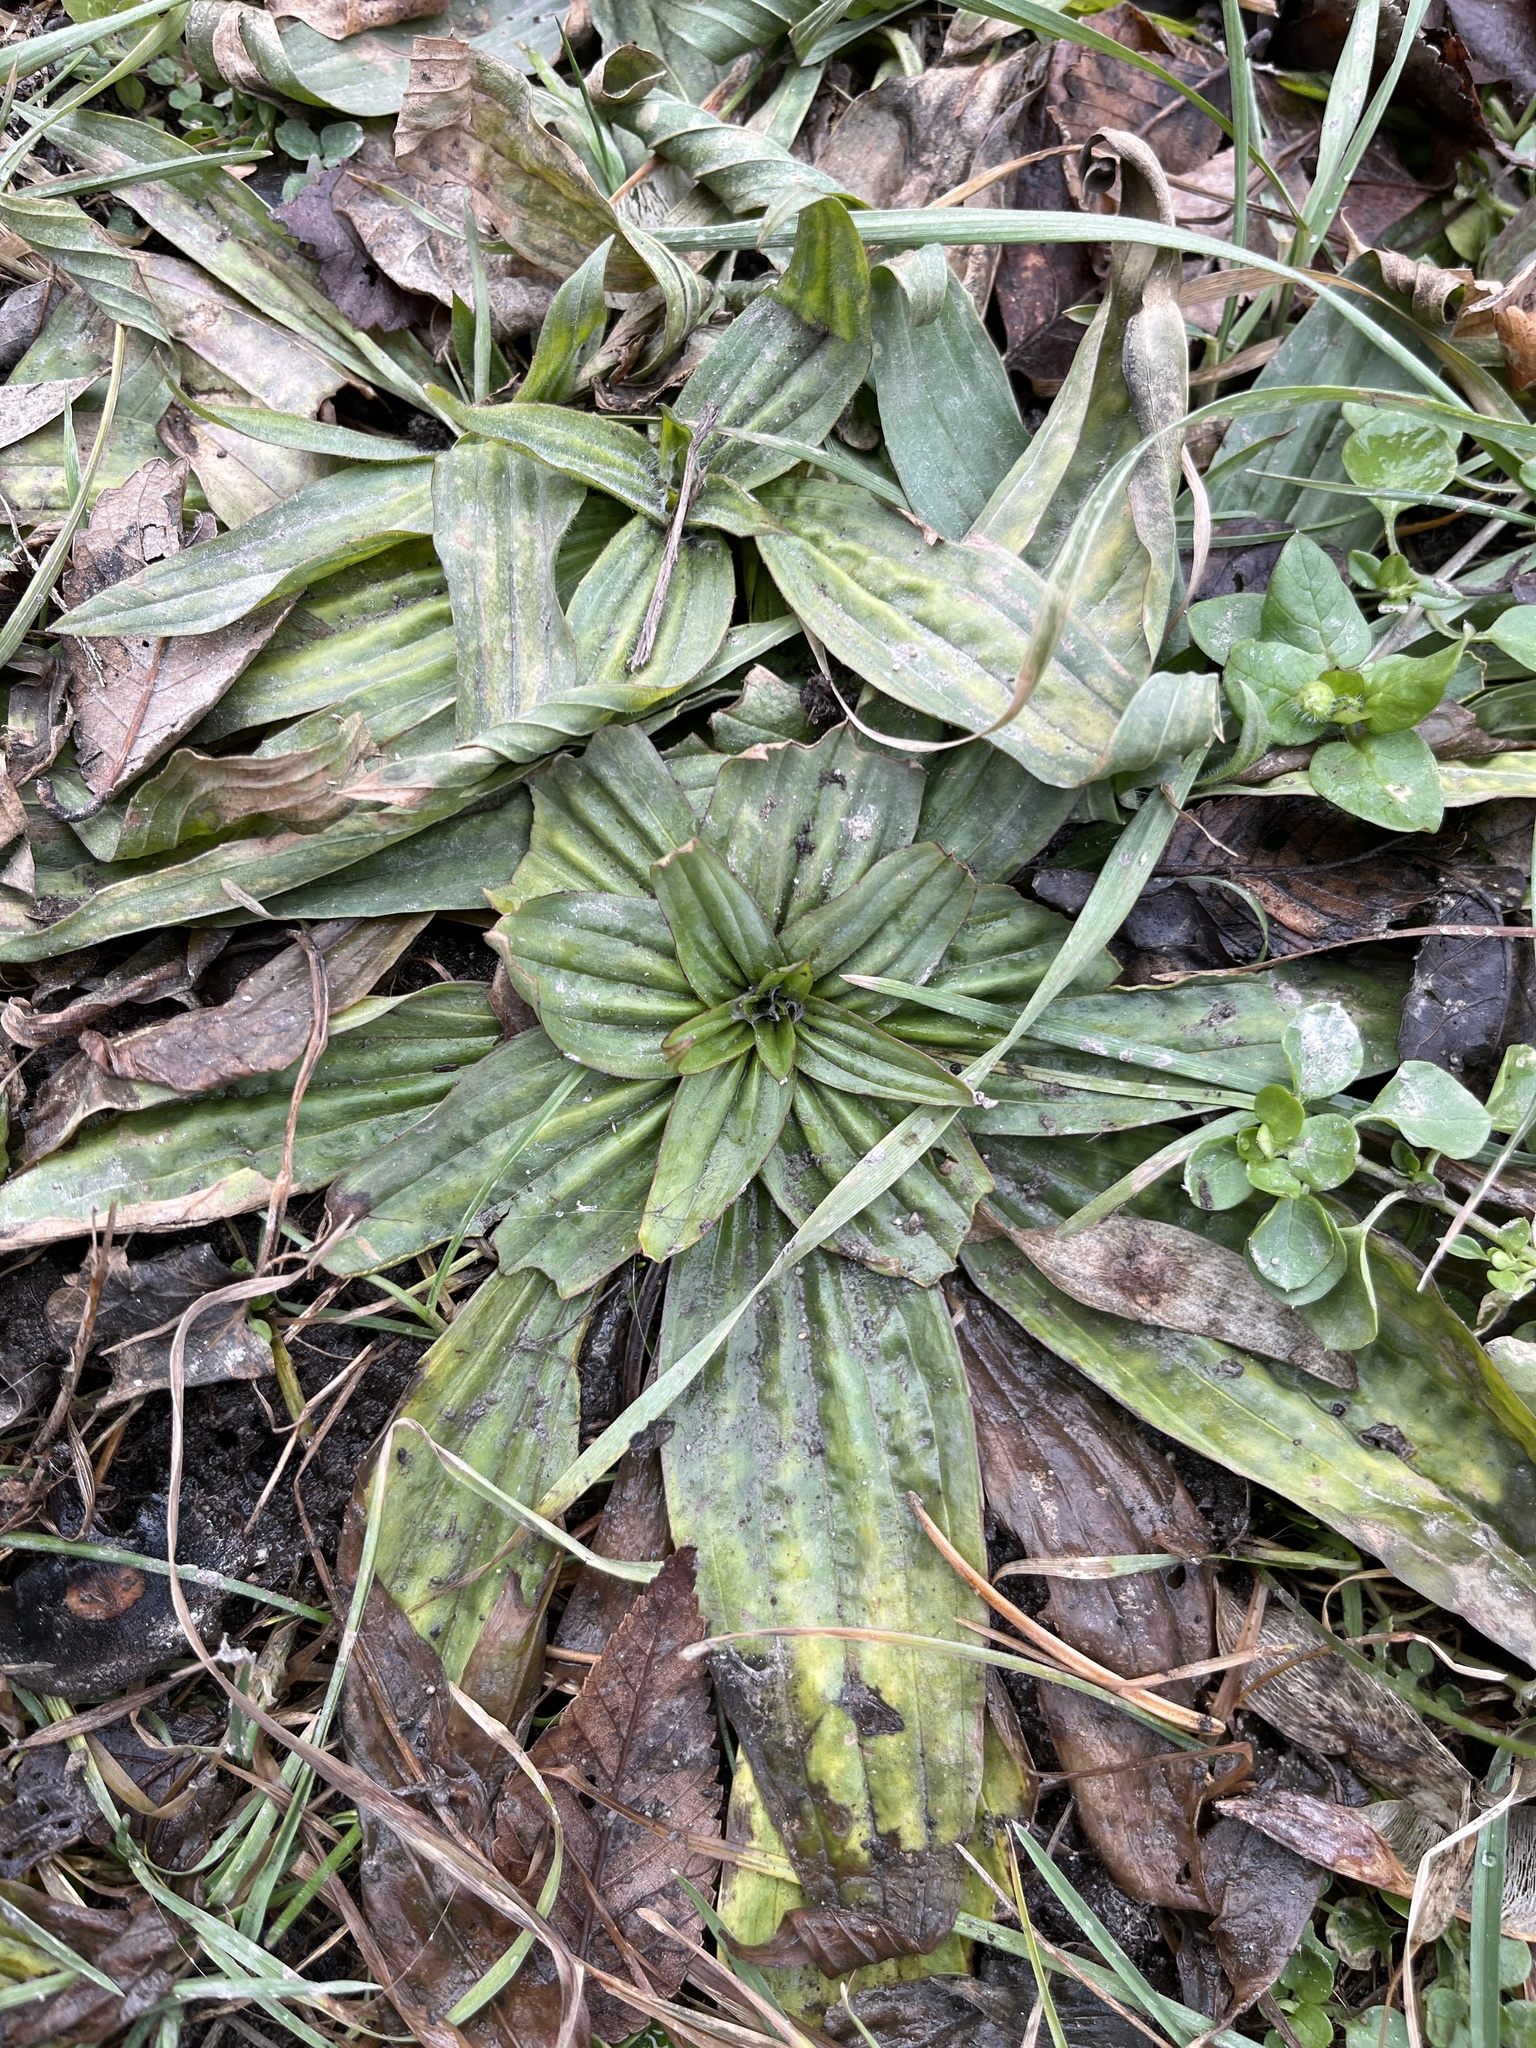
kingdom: Plantae
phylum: Tracheophyta
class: Magnoliopsida
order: Lamiales
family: Plantaginaceae
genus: Plantago
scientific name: Plantago lanceolata
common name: Ribwort plantain
